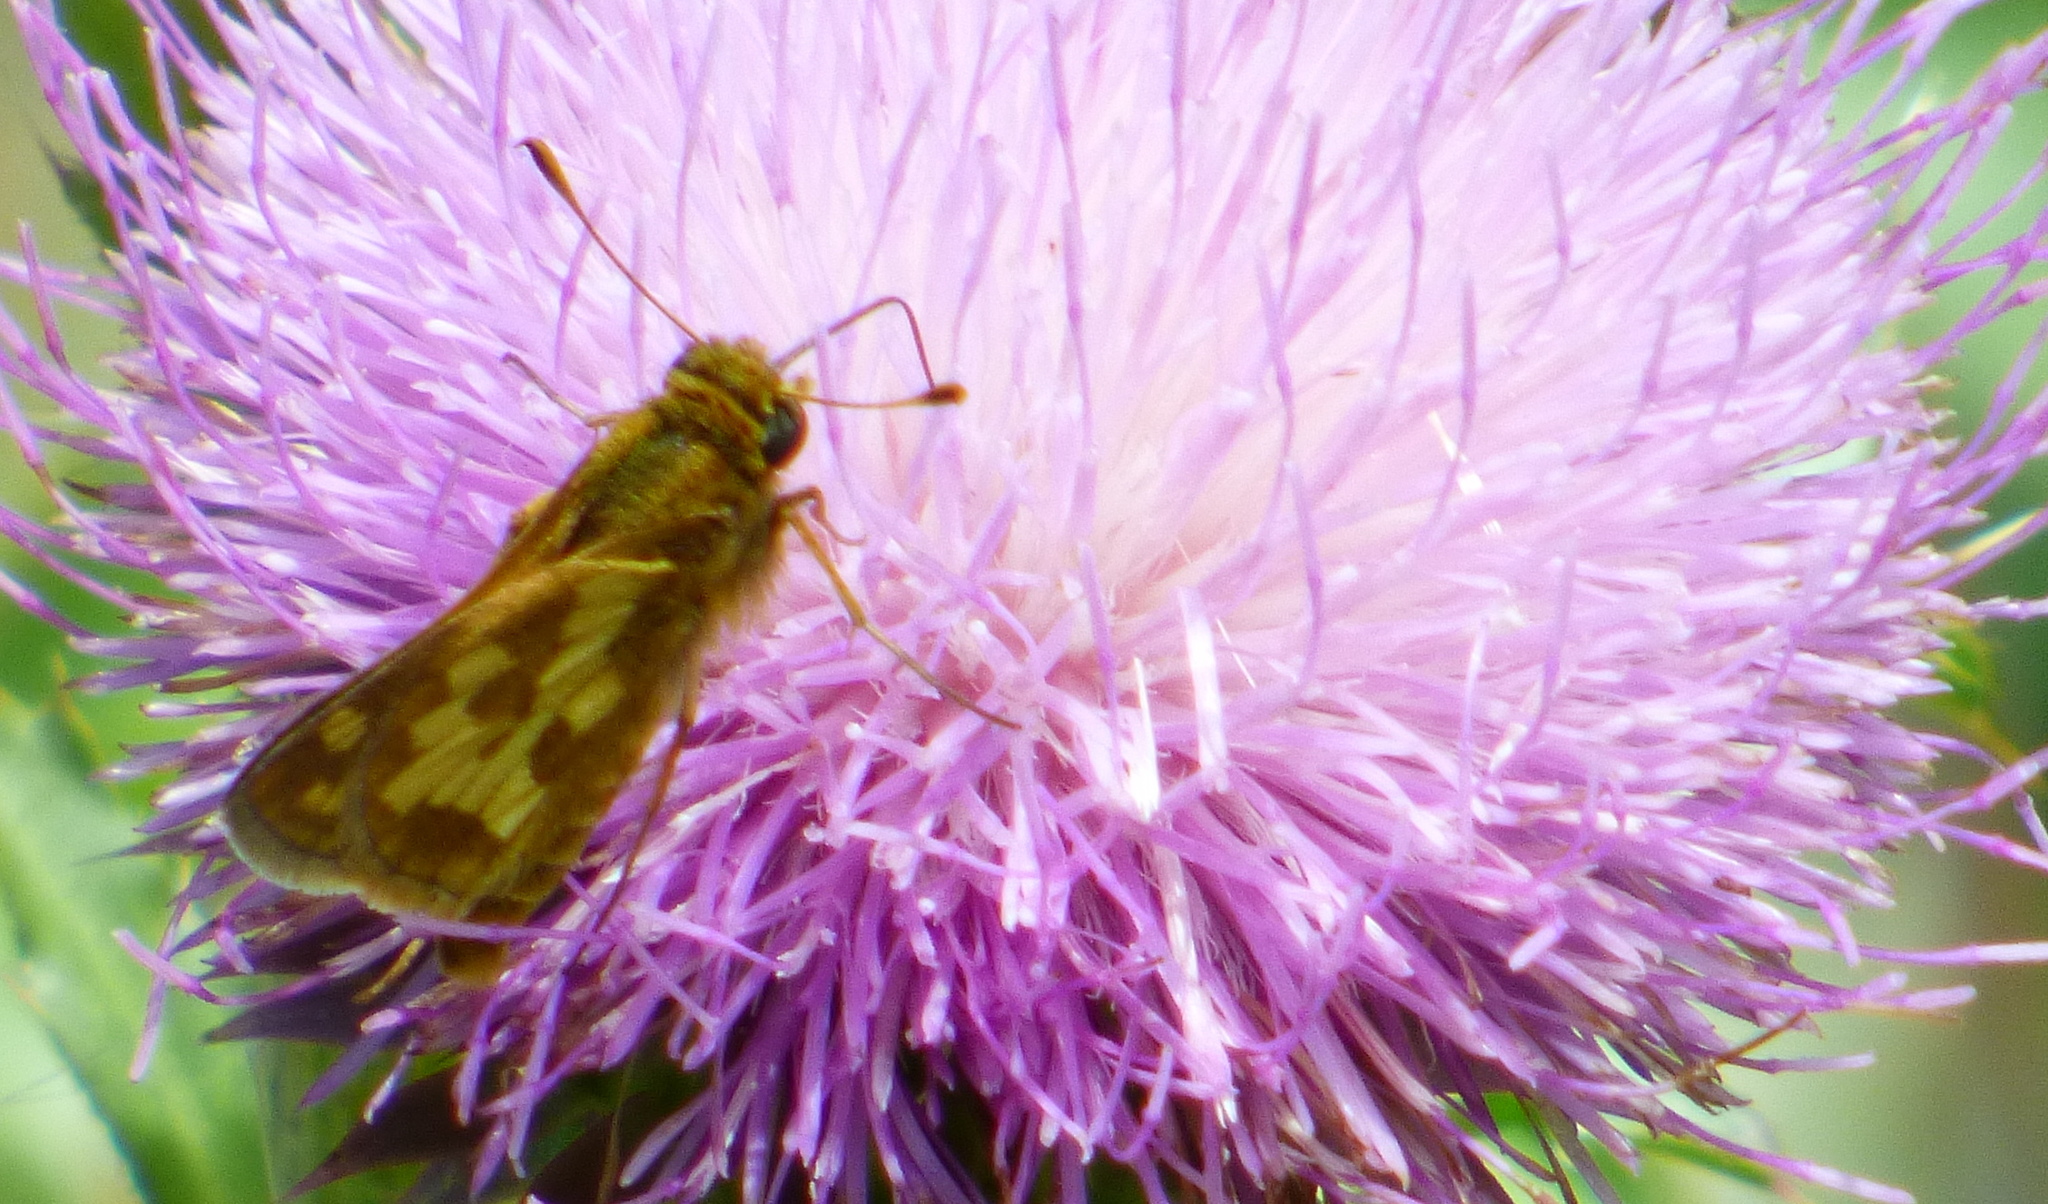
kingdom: Animalia
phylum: Arthropoda
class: Insecta
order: Lepidoptera
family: Hesperiidae
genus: Polites
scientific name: Polites coras
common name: Peck's skipper
